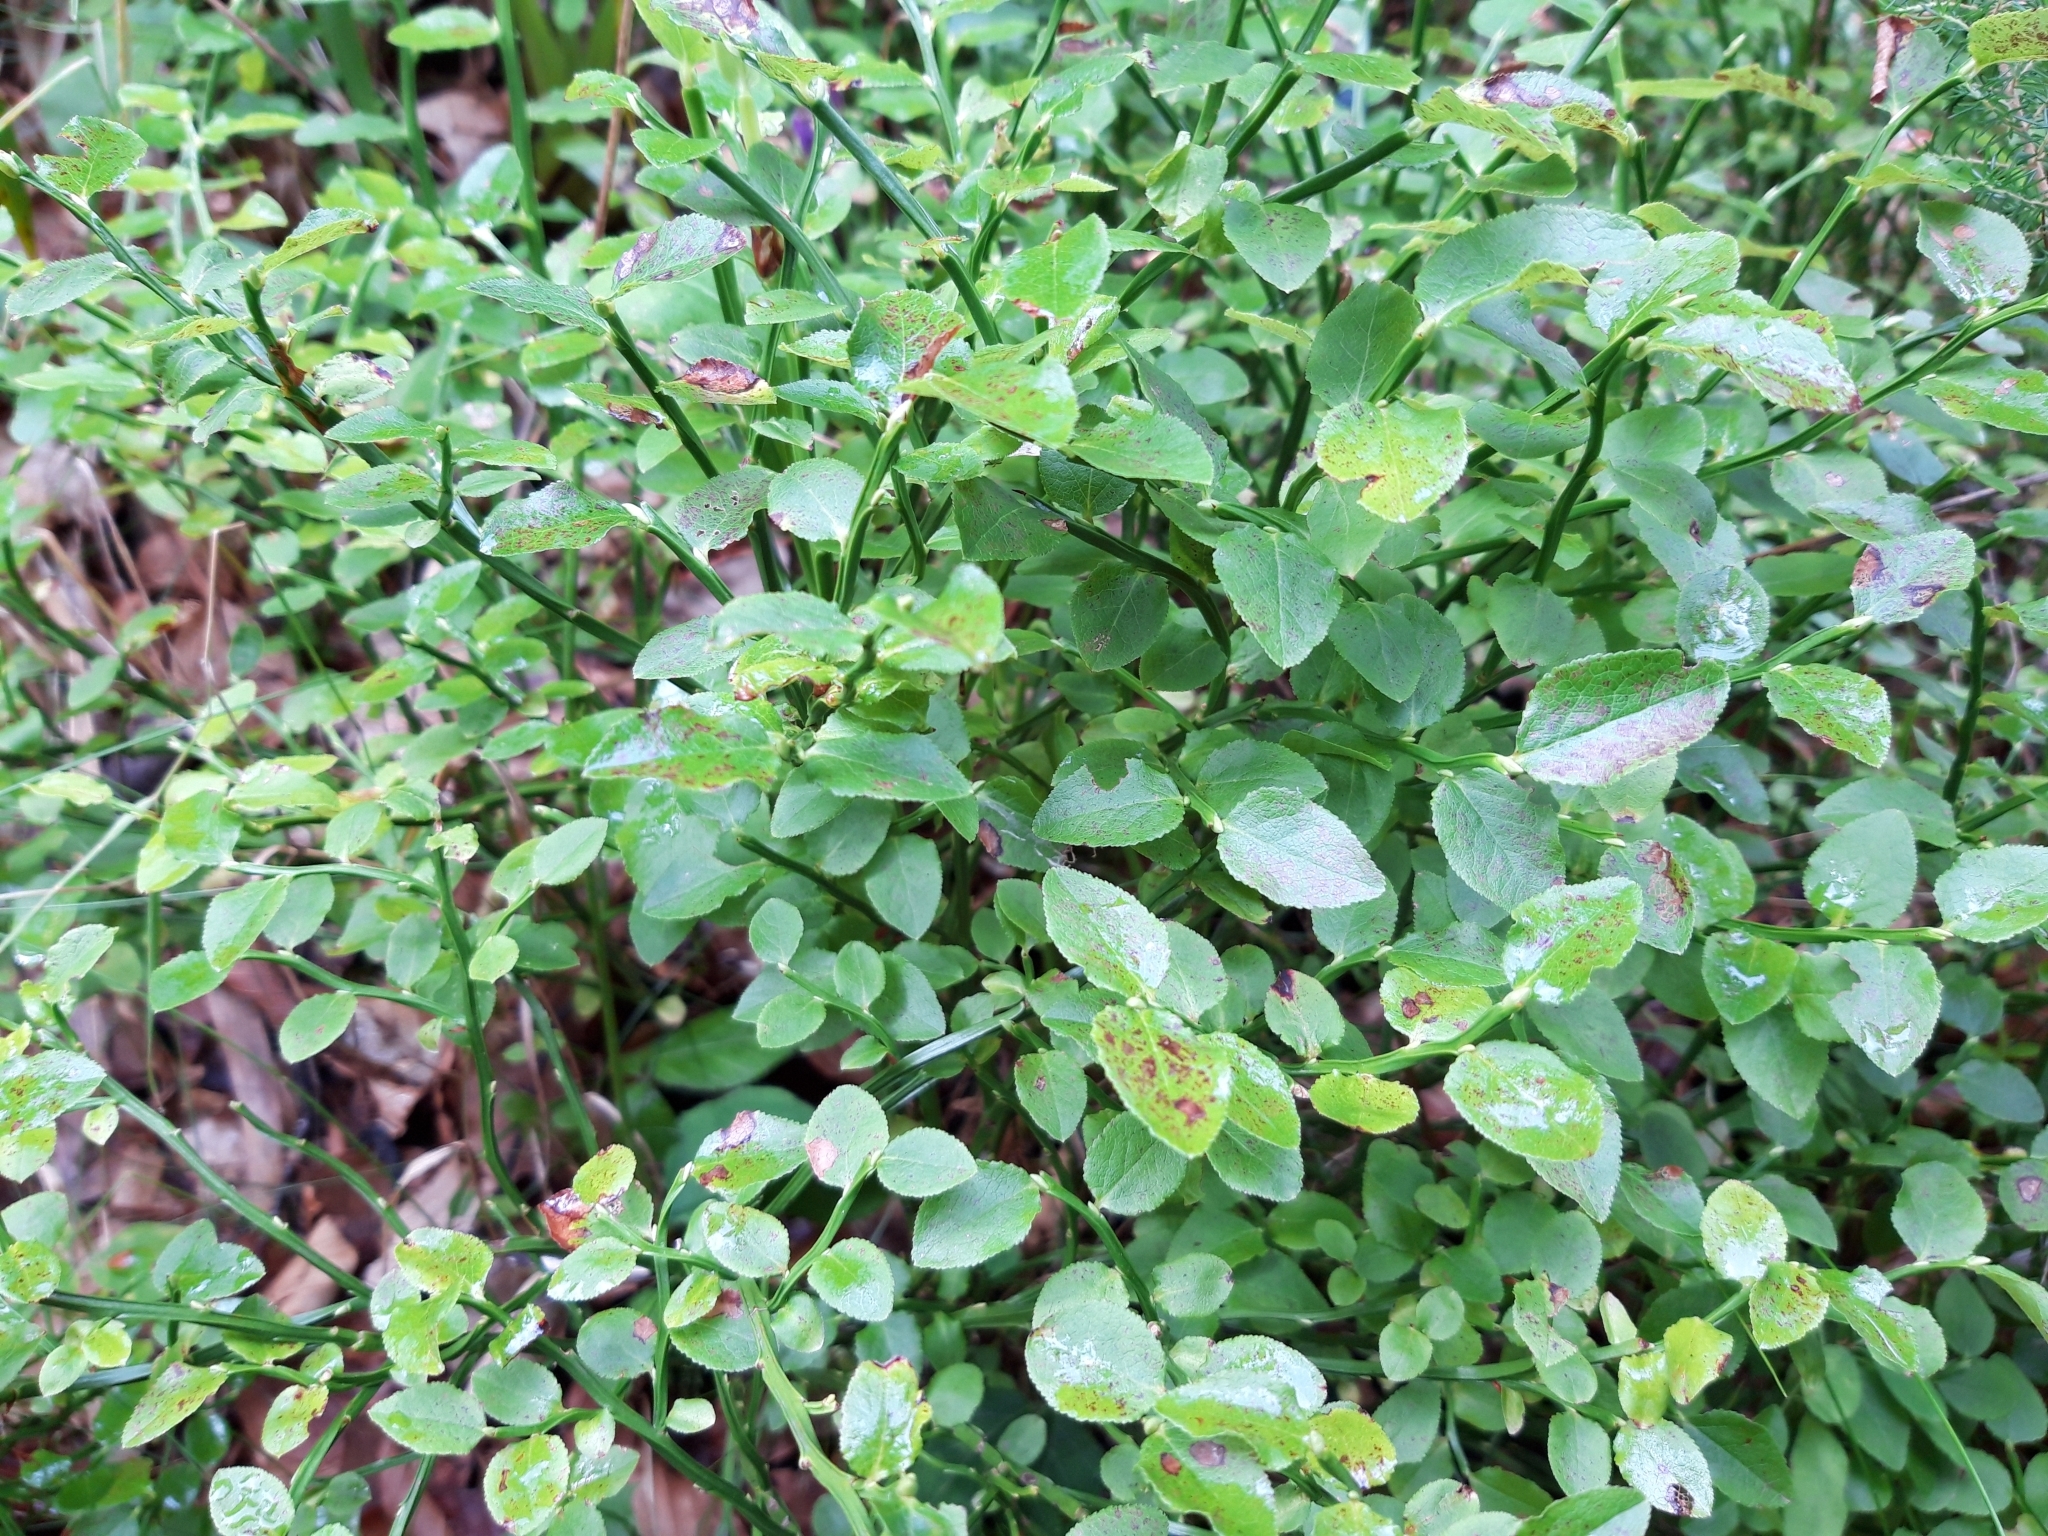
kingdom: Plantae
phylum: Tracheophyta
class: Magnoliopsida
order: Ericales
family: Ericaceae
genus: Vaccinium
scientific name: Vaccinium myrtillus
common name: Bilberry
